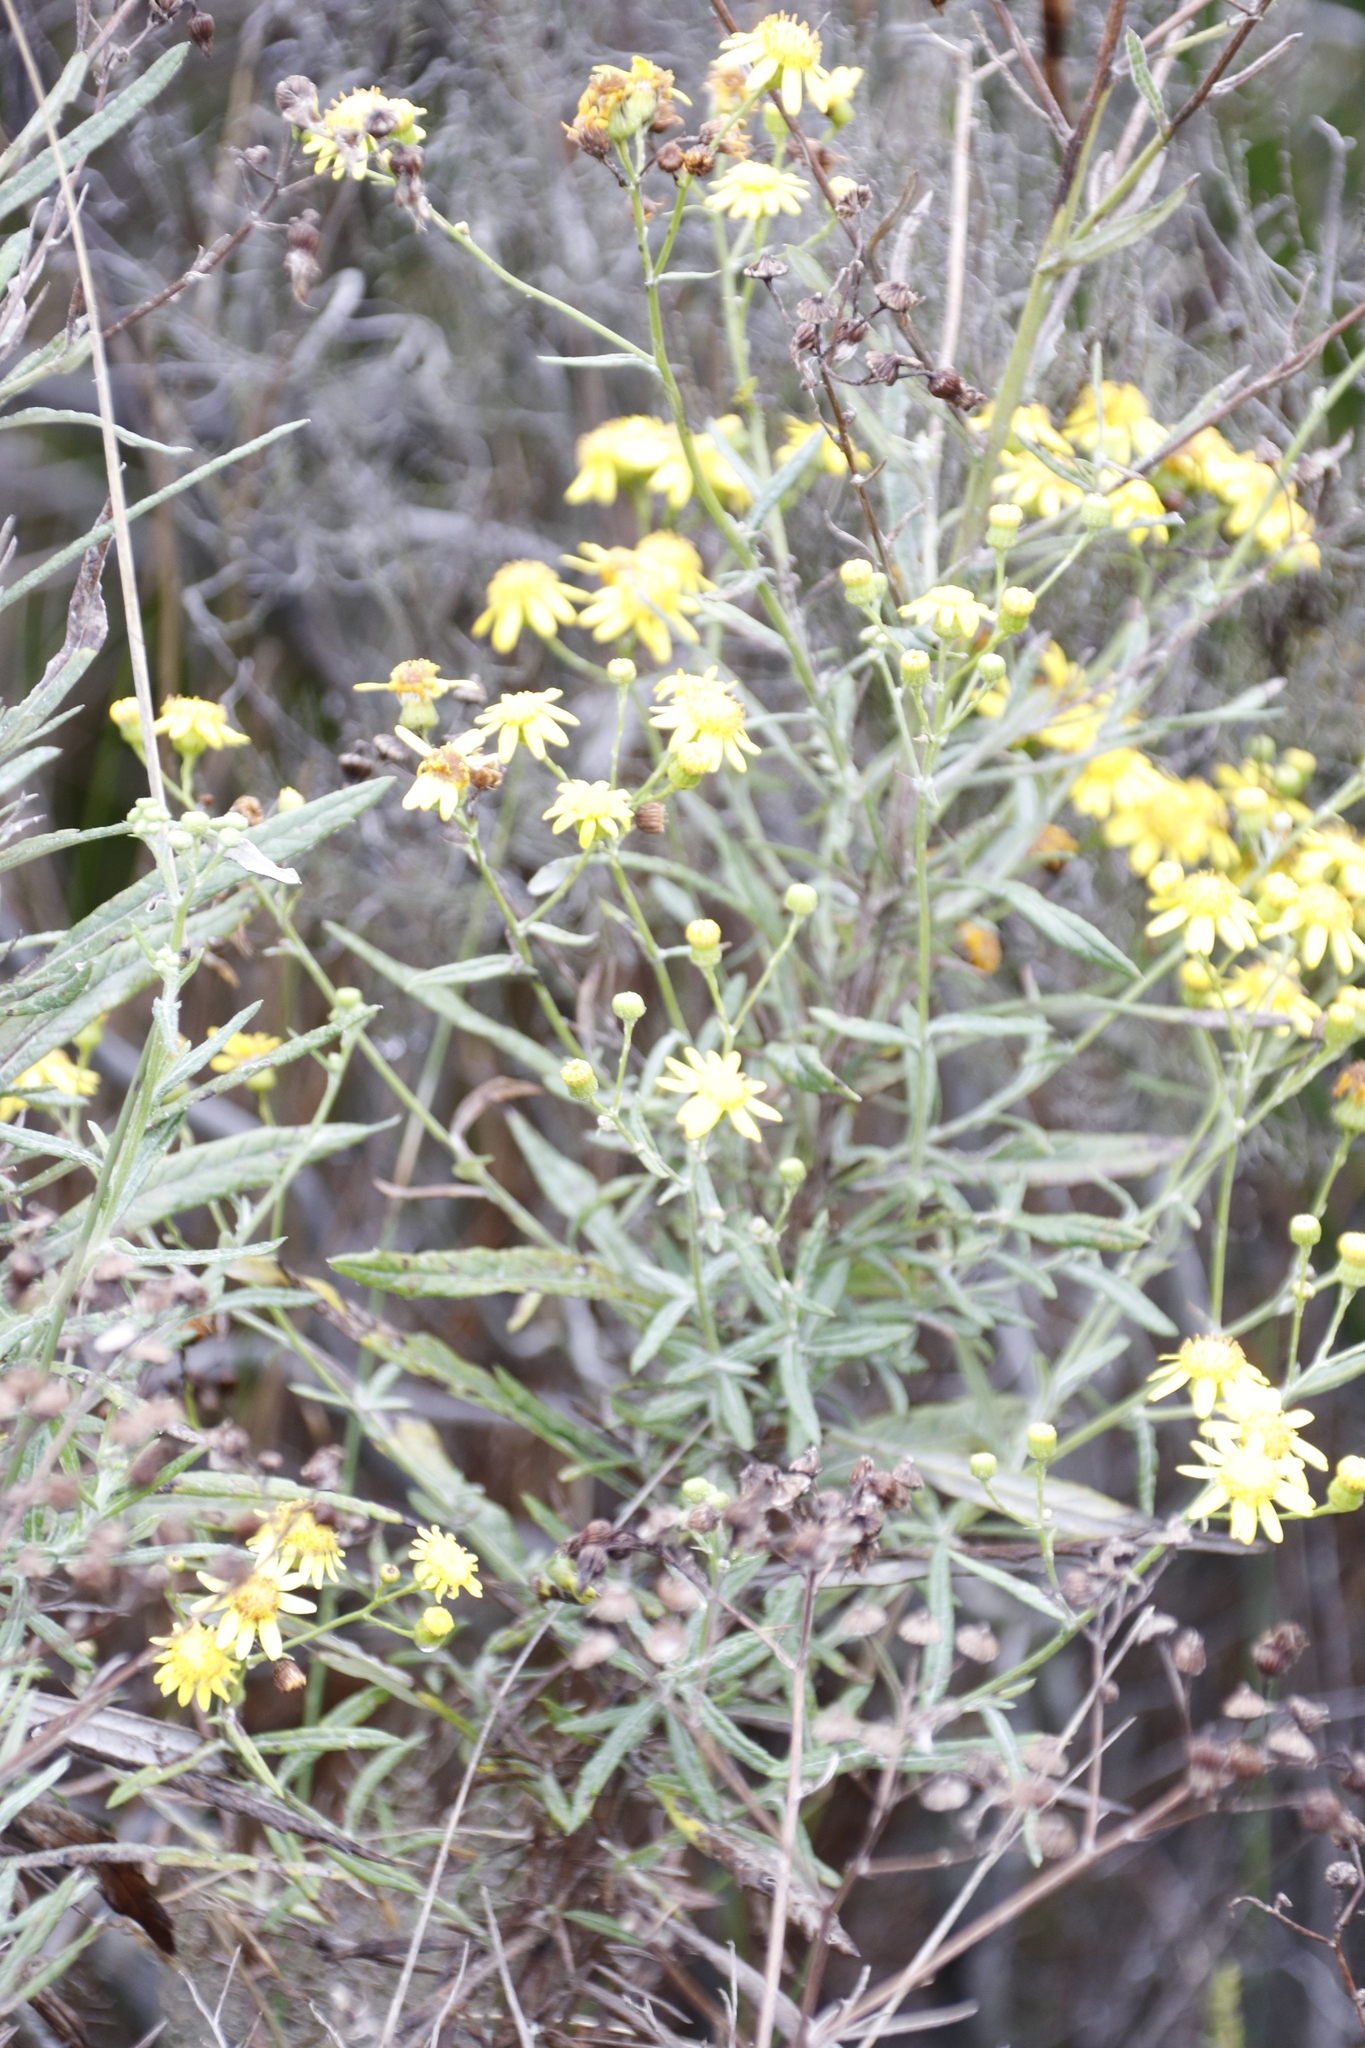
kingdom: Plantae
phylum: Tracheophyta
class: Magnoliopsida
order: Asterales
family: Asteraceae
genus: Senecio
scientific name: Senecio pterophorus
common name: Shoddy ragwort
